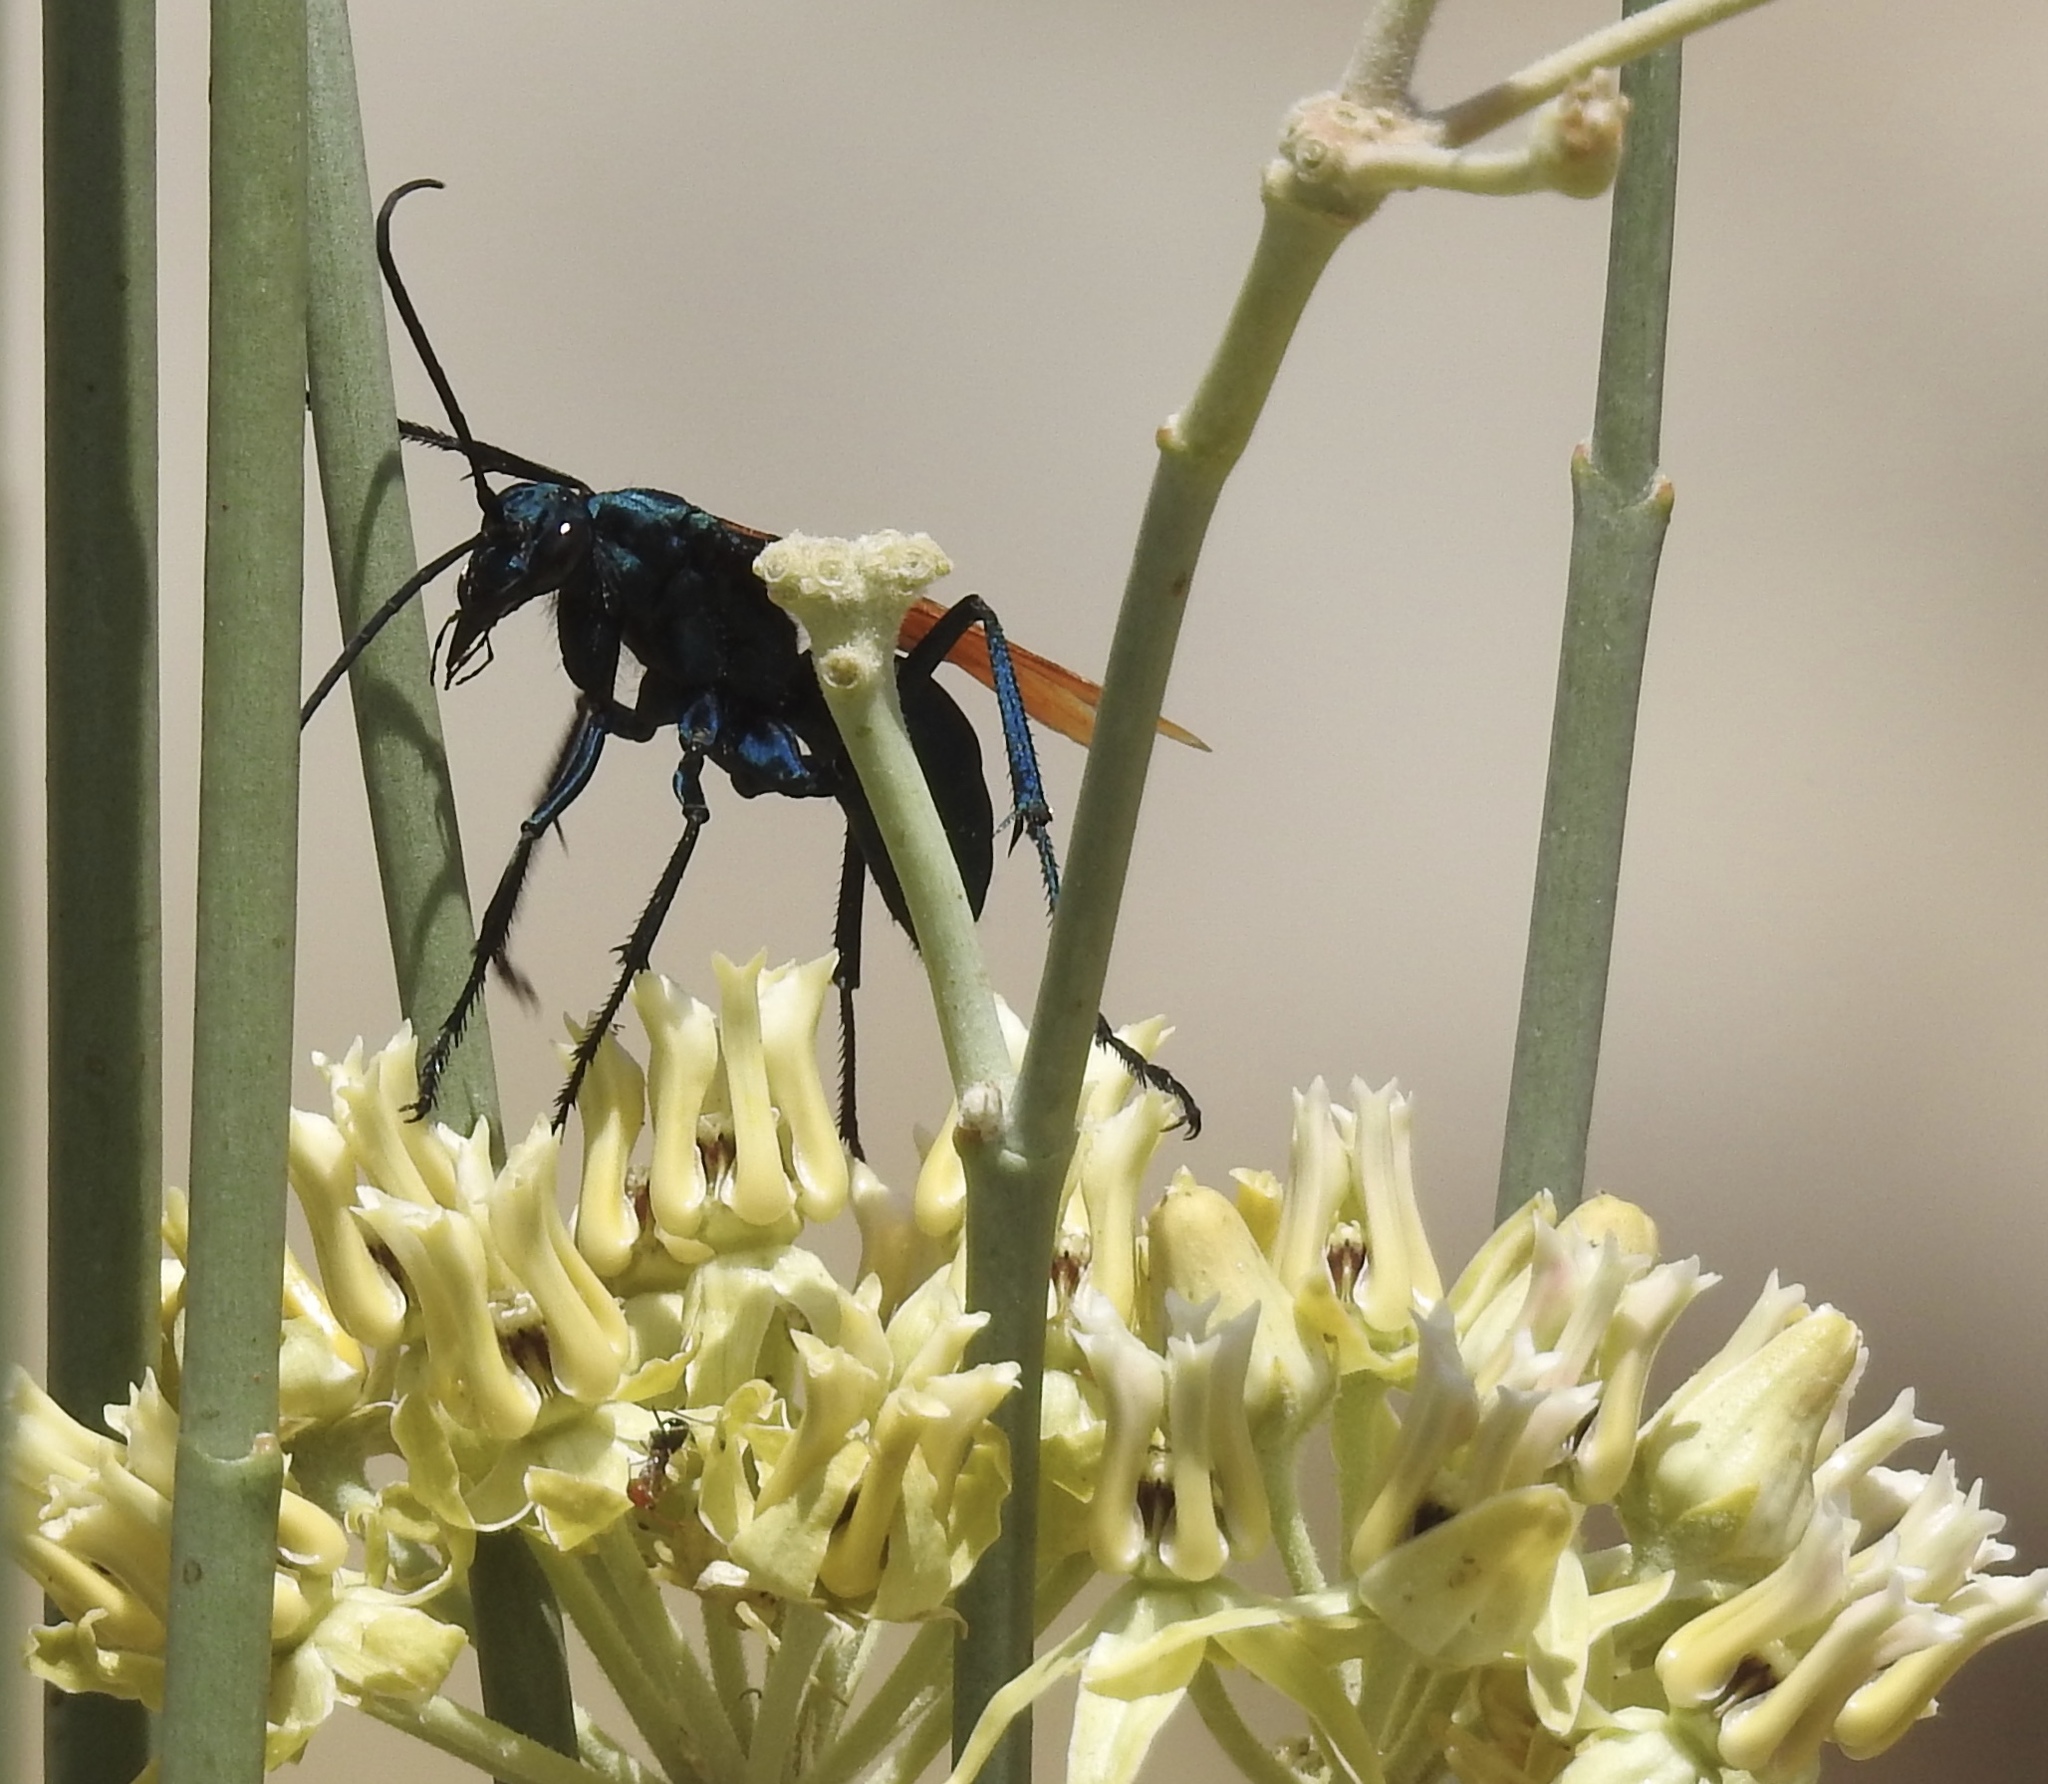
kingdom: Animalia
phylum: Arthropoda
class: Insecta
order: Hymenoptera
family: Pompilidae
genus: Pepsis
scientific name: Pepsis thisbe
